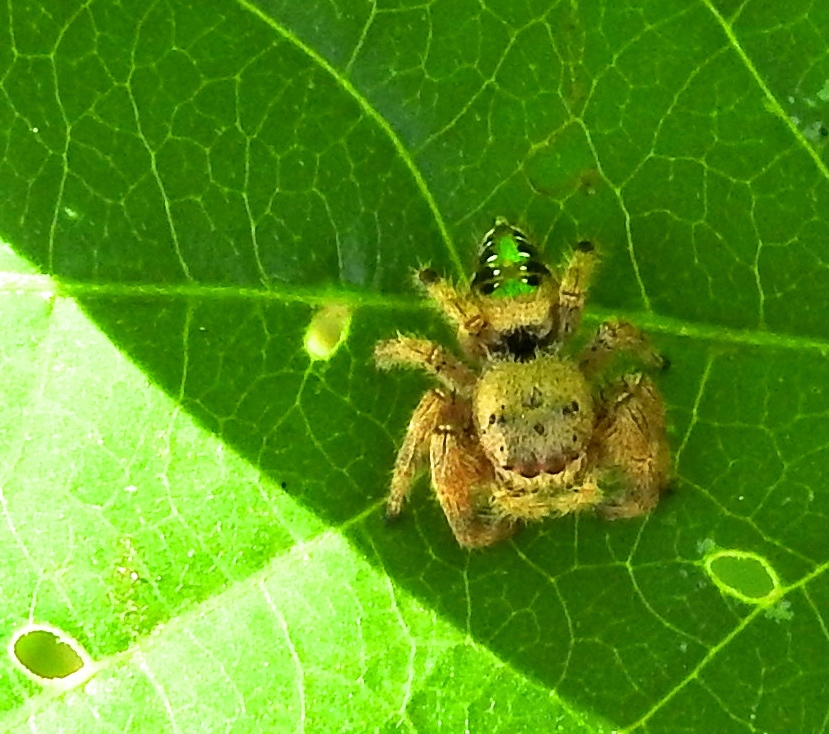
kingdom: Animalia
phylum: Arthropoda
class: Arachnida
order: Araneae
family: Salticidae
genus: Paraphidippus
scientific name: Paraphidippus aurantius
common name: Jumping spiders
